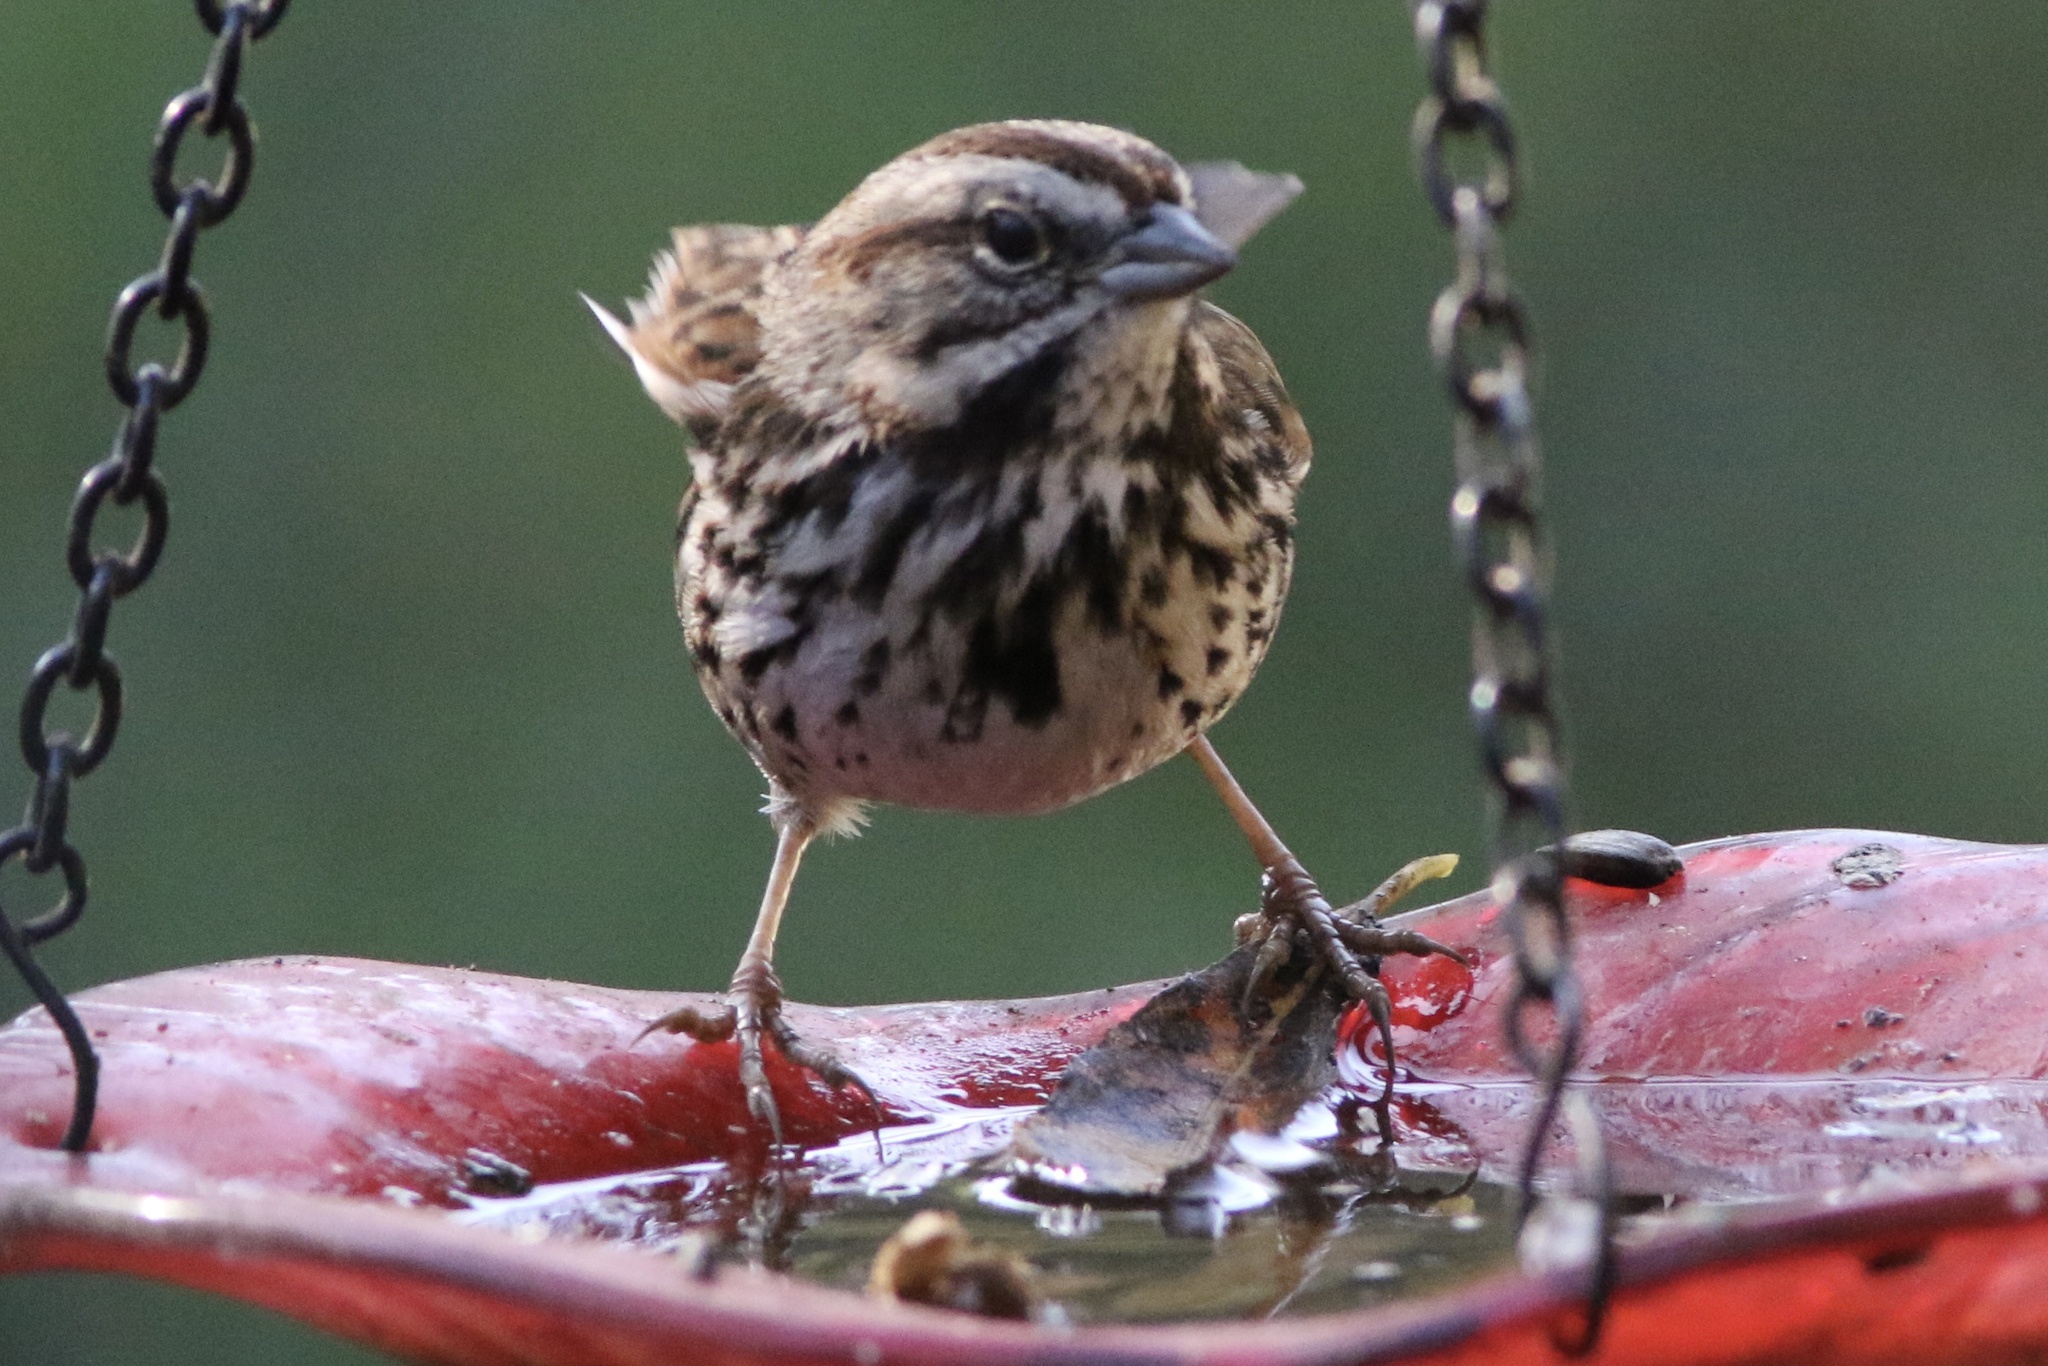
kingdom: Animalia
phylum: Chordata
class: Aves
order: Passeriformes
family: Passerellidae
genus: Melospiza
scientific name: Melospiza melodia
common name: Song sparrow
